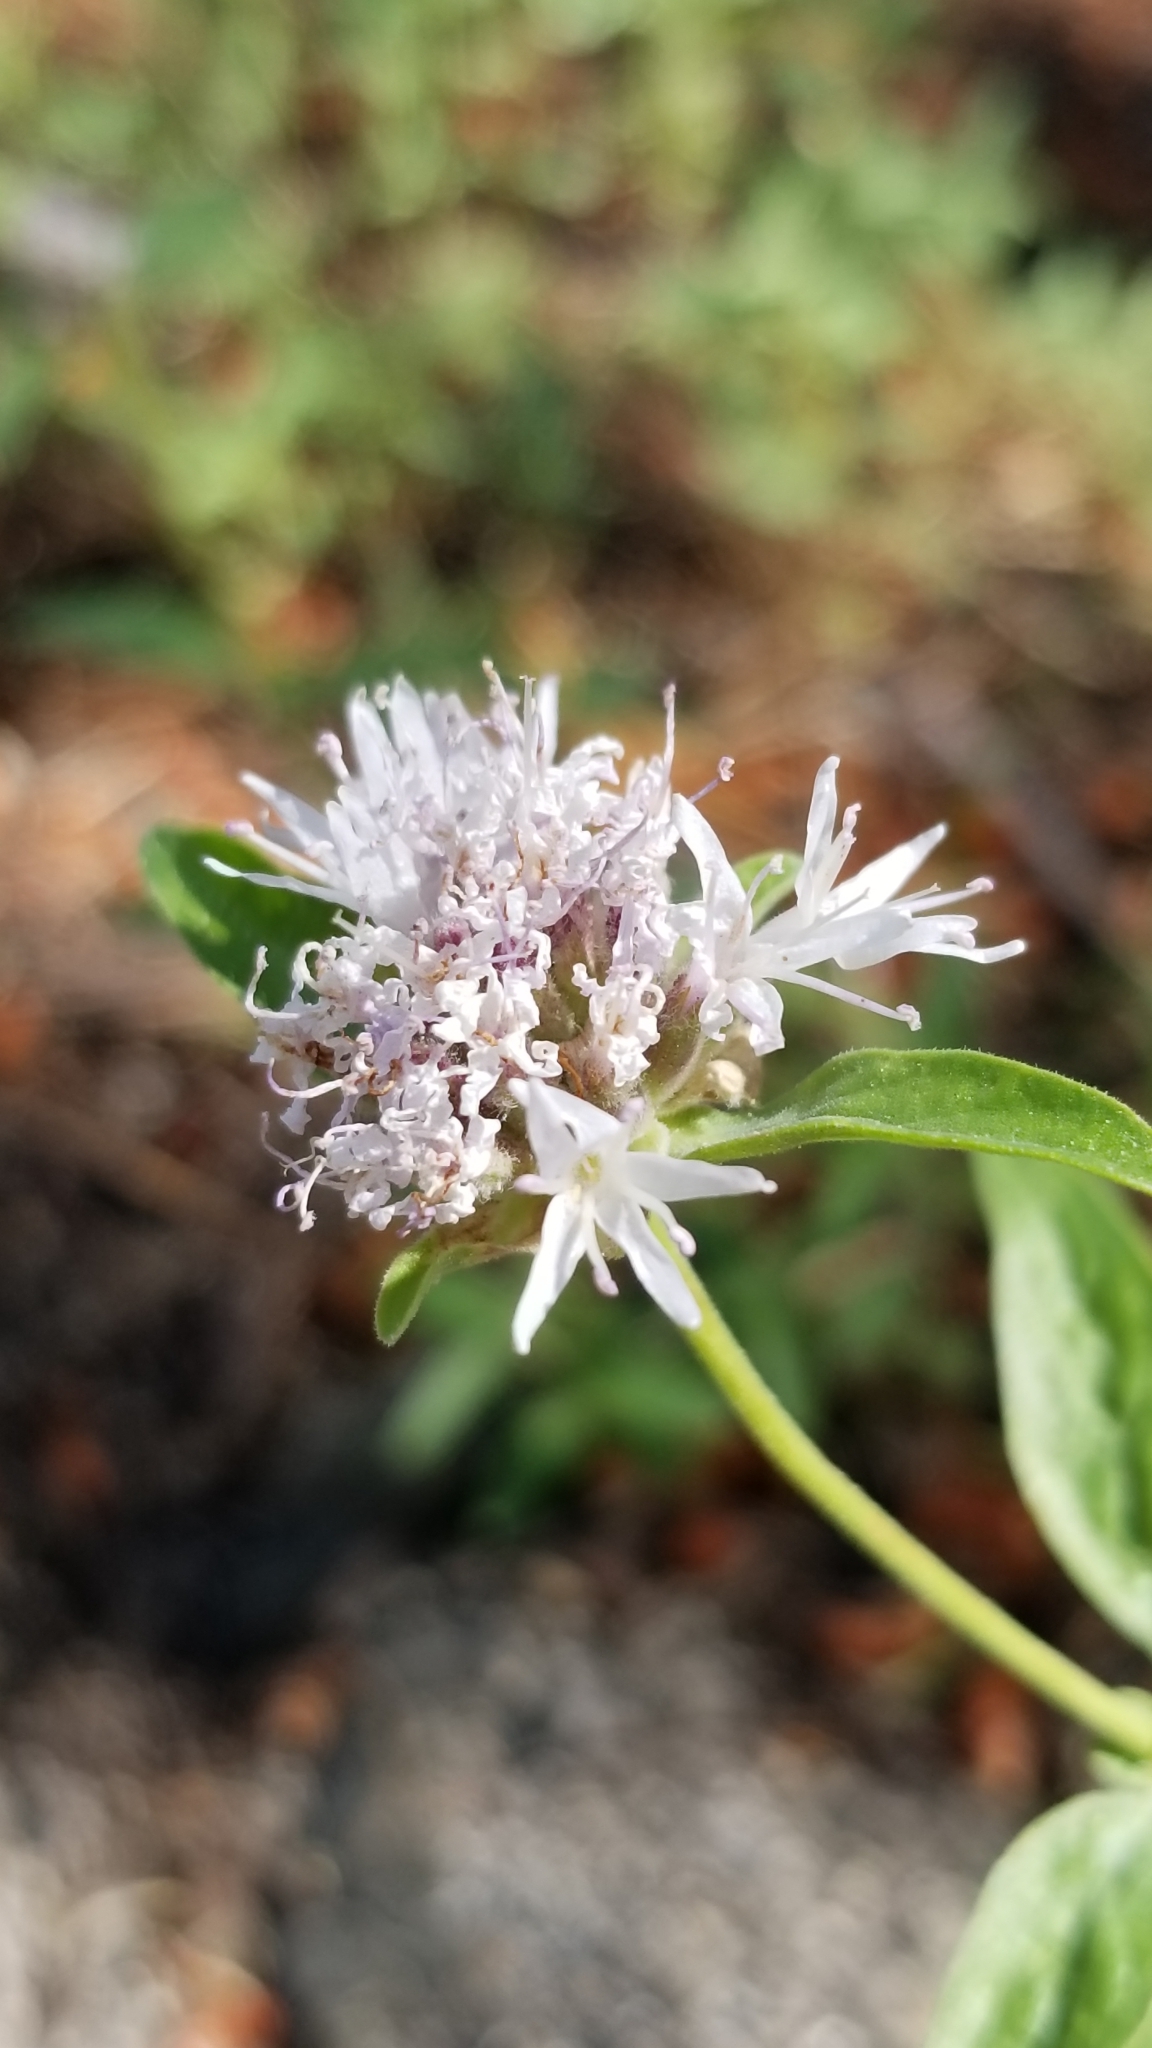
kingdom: Plantae
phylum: Tracheophyta
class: Magnoliopsida
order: Lamiales
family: Lamiaceae
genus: Monardella
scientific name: Monardella odoratissima
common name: Pacific monardella
